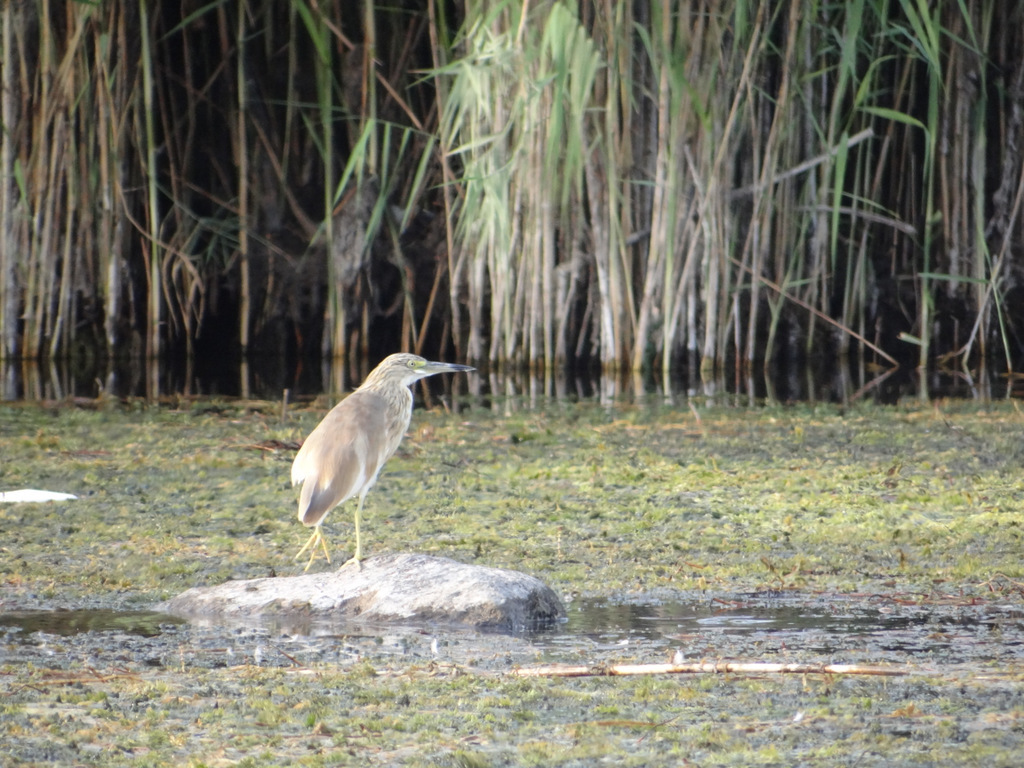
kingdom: Animalia
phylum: Chordata
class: Aves
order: Pelecaniformes
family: Ardeidae
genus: Ardeola
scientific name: Ardeola ralloides
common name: Squacco heron
